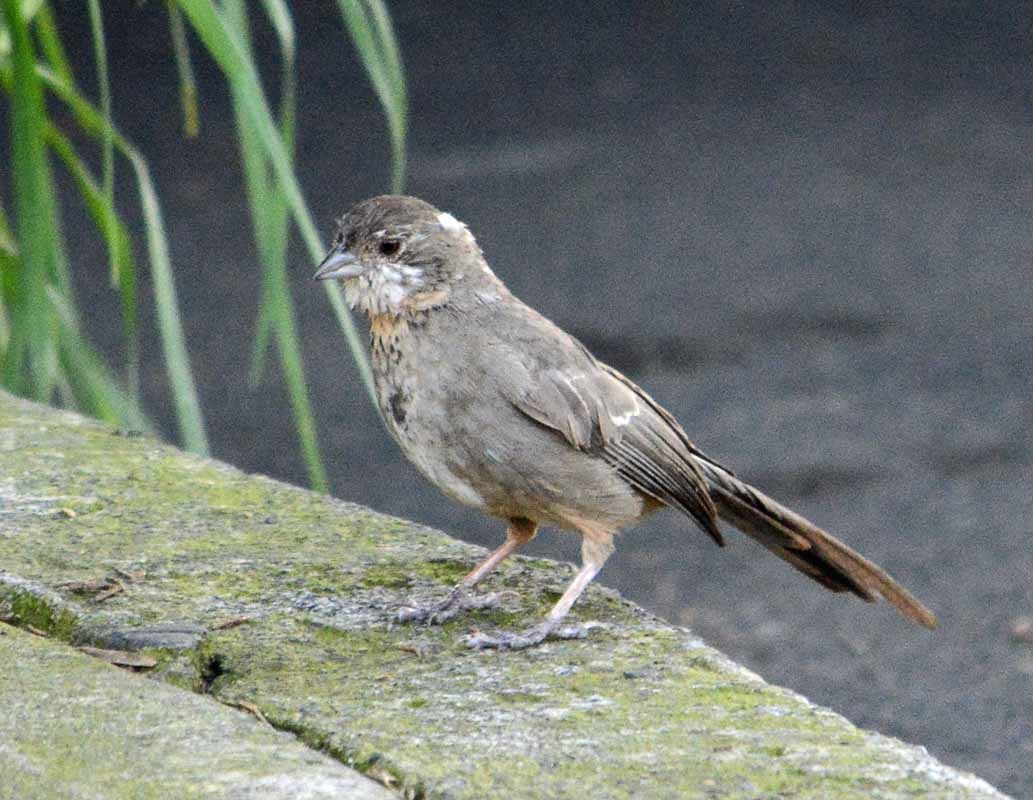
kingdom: Animalia
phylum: Chordata
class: Aves
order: Passeriformes
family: Passerellidae
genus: Melozone
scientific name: Melozone fusca
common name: Canyon towhee
